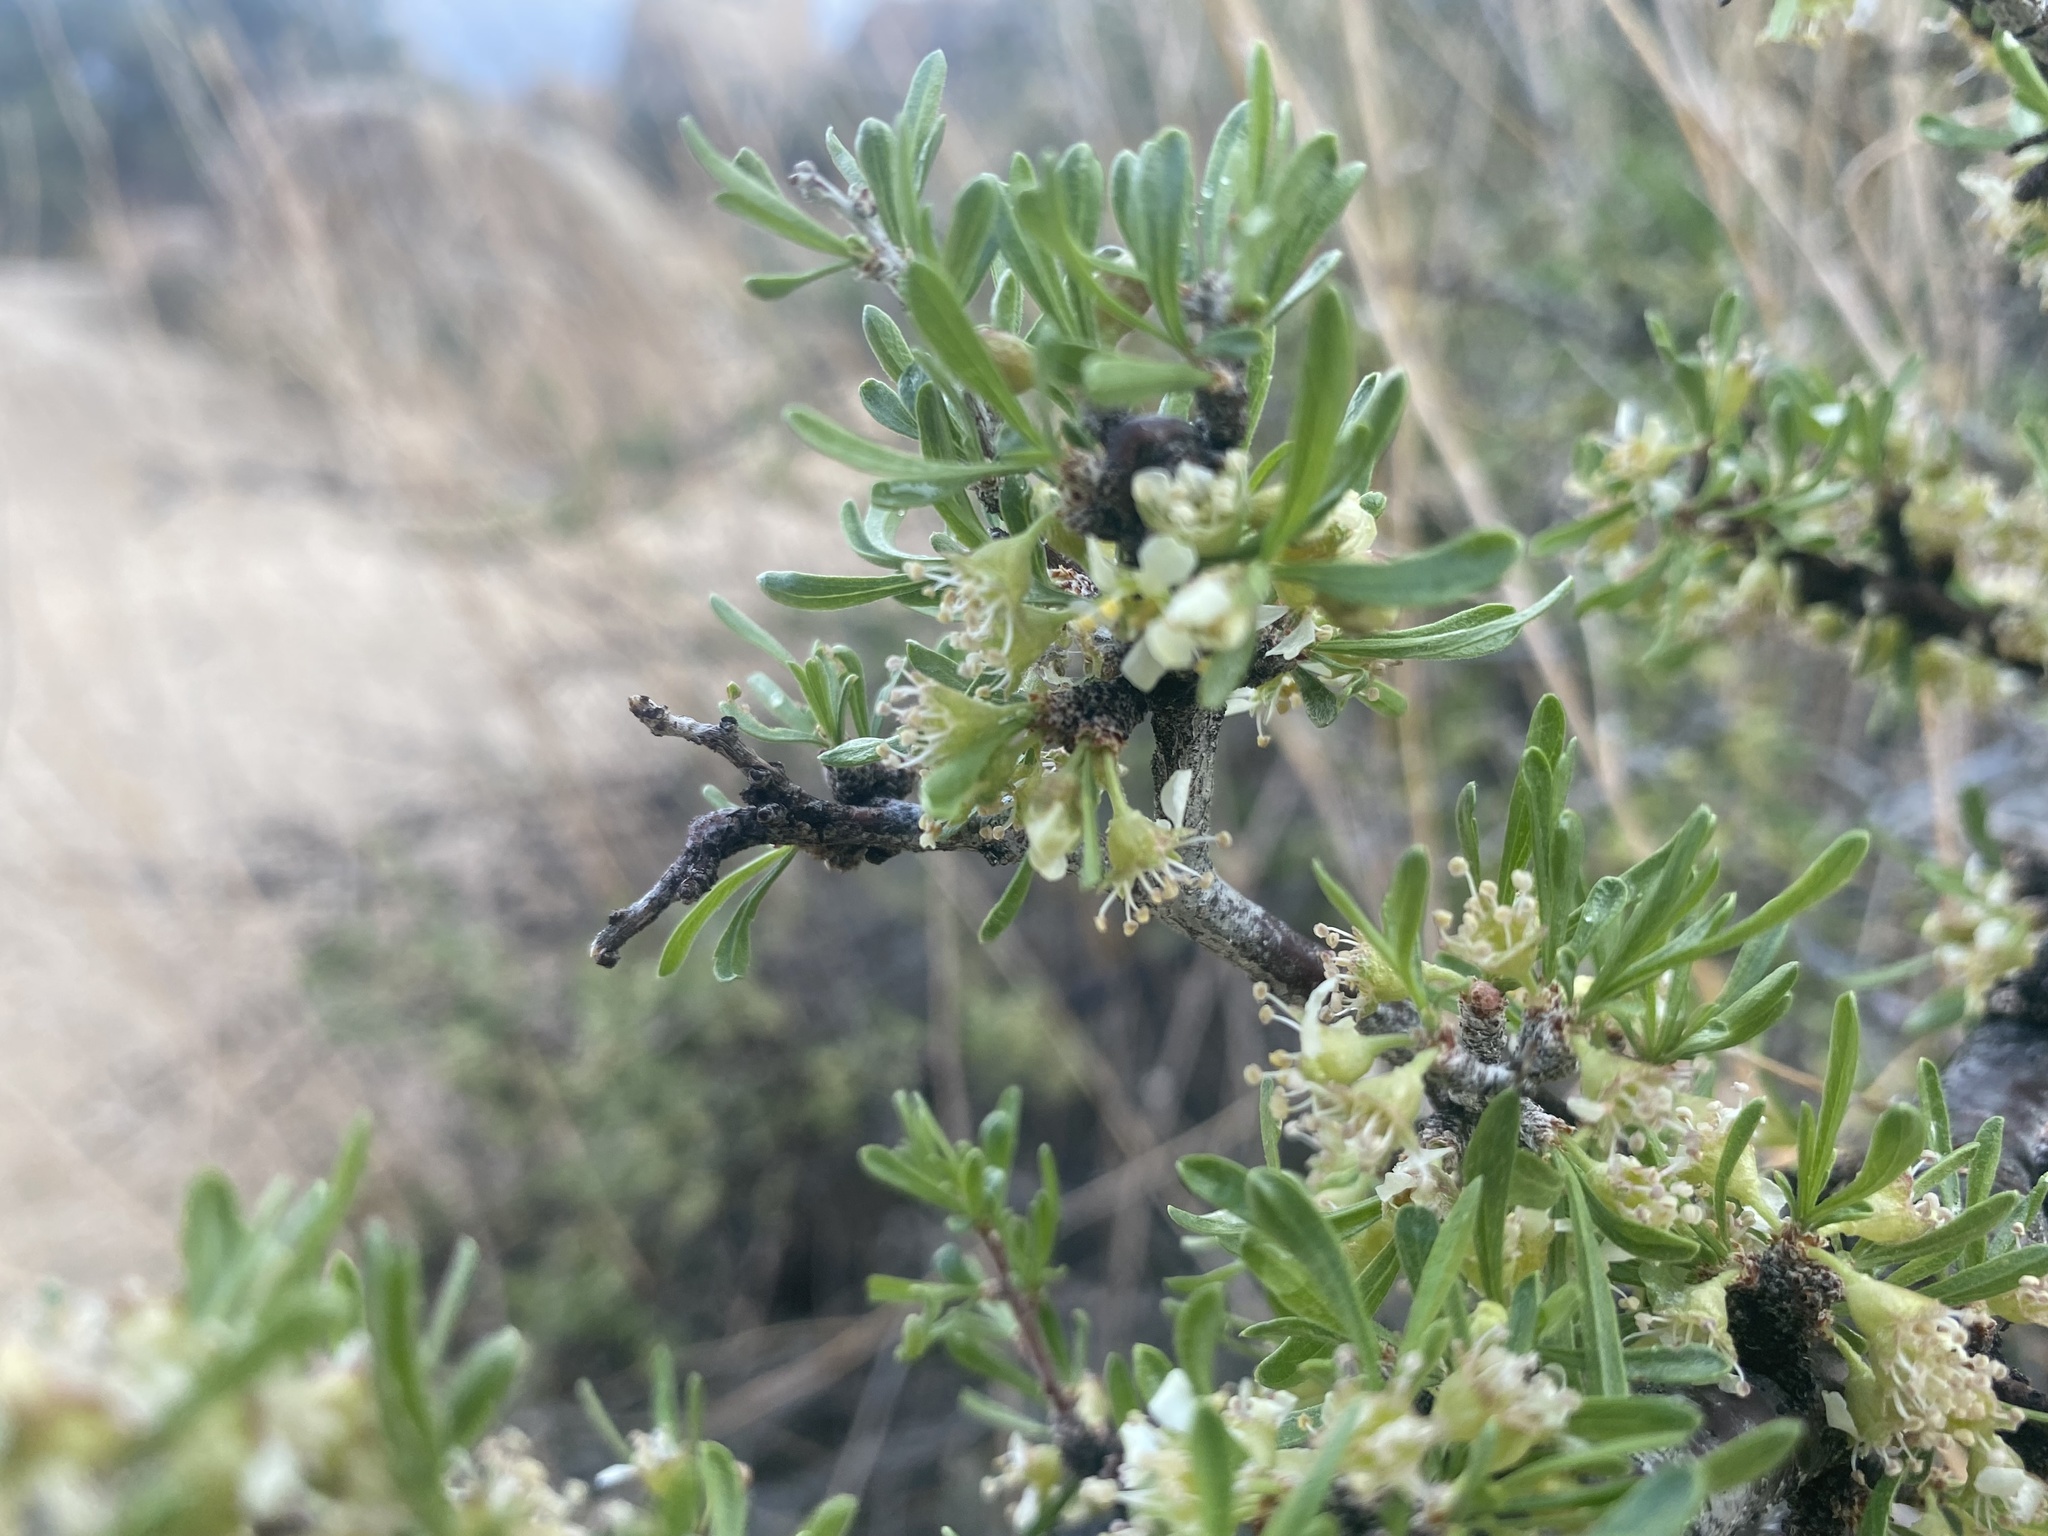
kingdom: Plantae
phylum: Tracheophyta
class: Magnoliopsida
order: Rosales
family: Rosaceae
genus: Prunus
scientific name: Prunus fasciculata
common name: Desert almond
